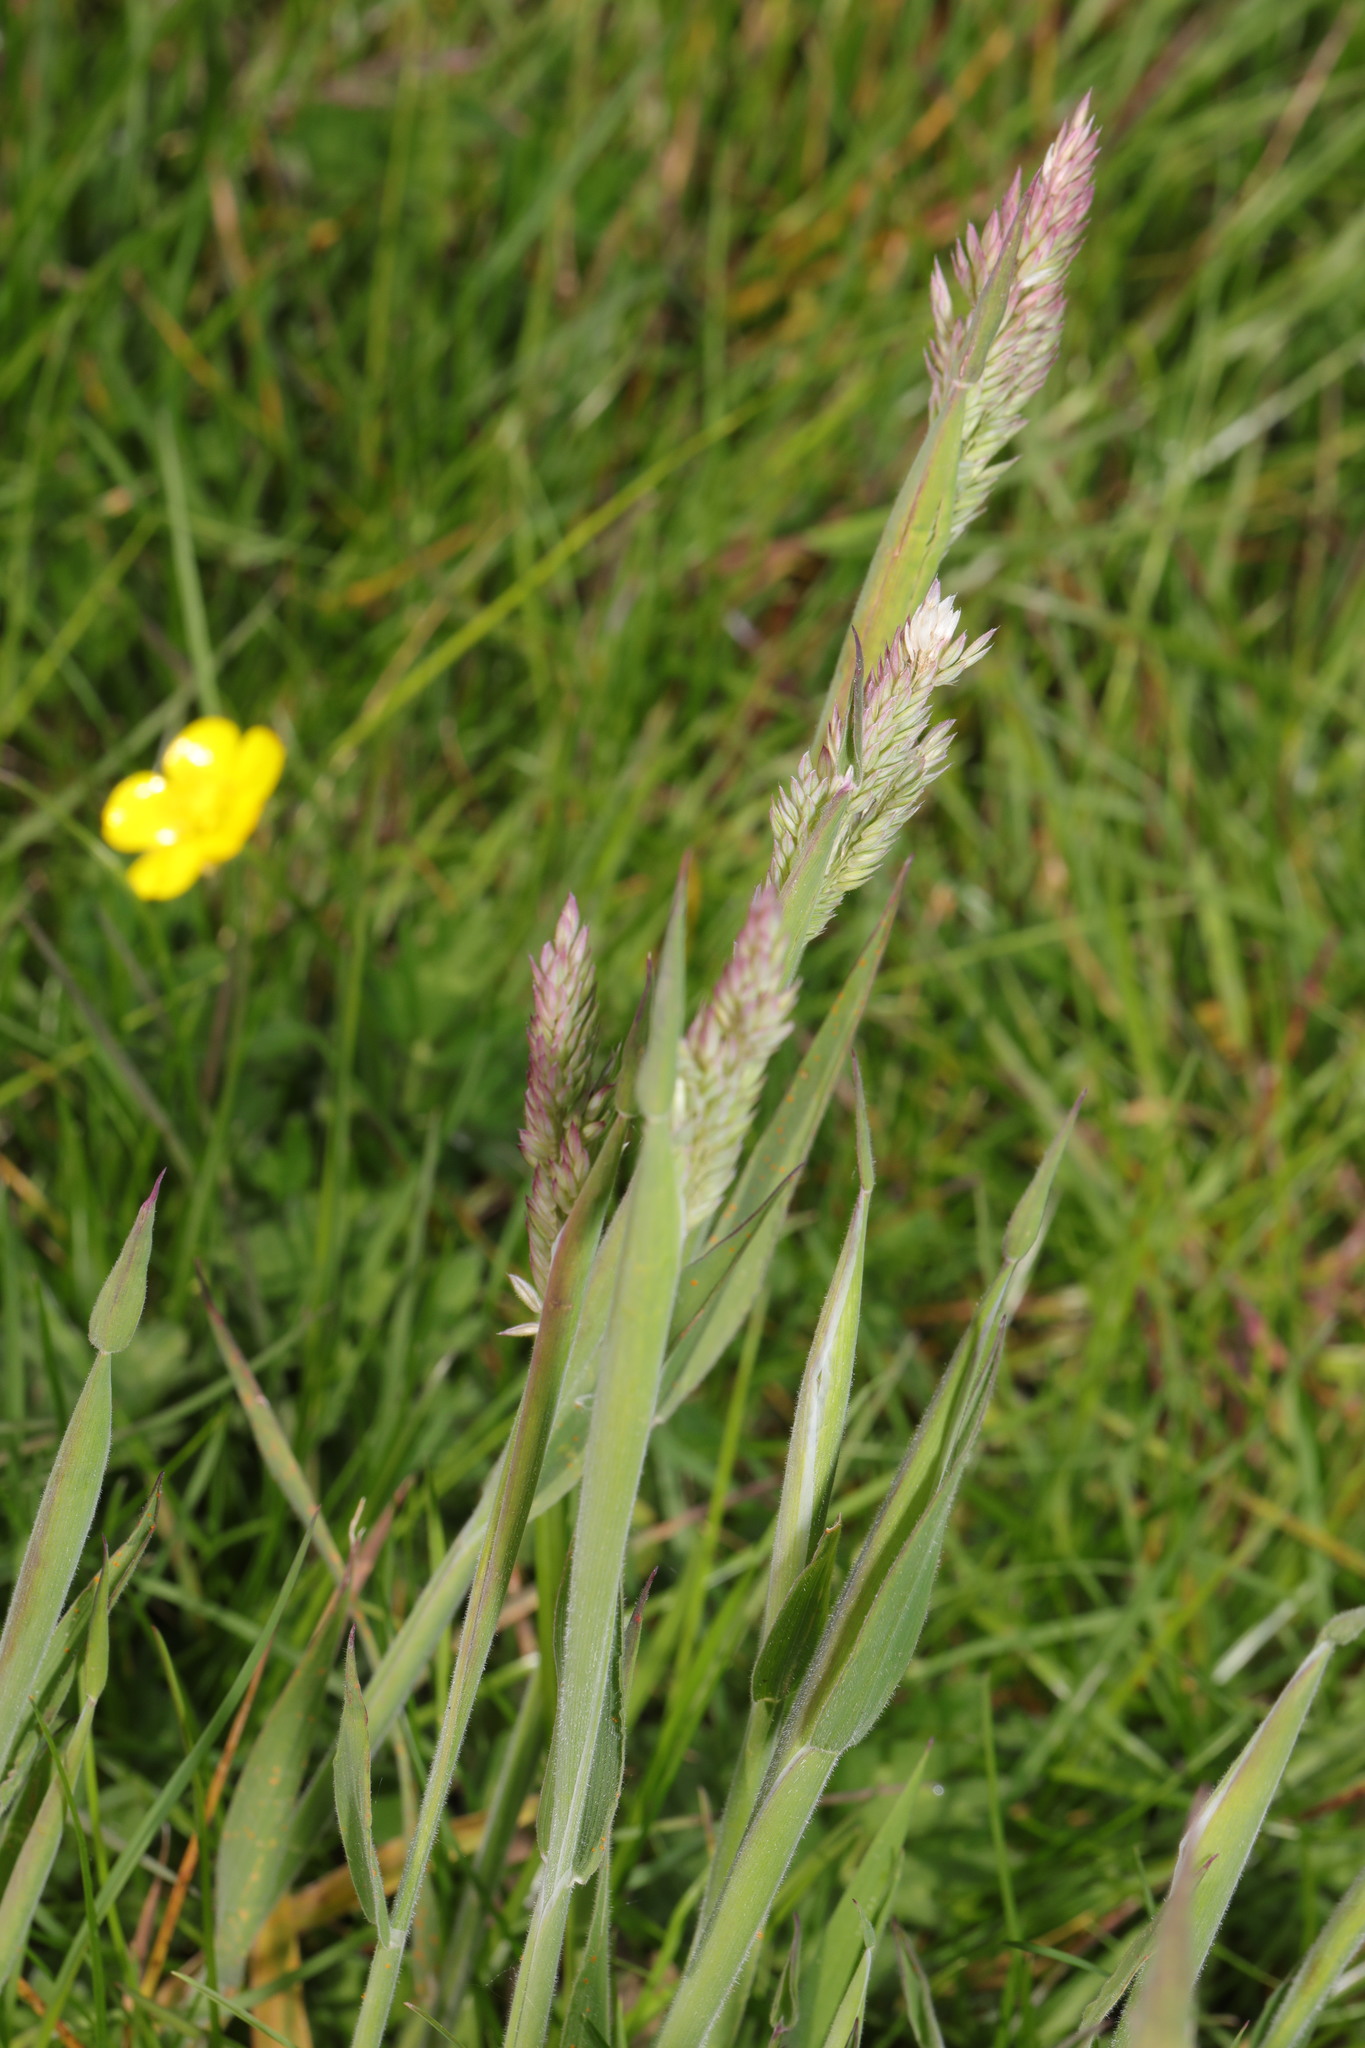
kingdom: Plantae
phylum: Tracheophyta
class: Liliopsida
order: Poales
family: Poaceae
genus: Holcus
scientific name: Holcus lanatus
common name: Yorkshire-fog
